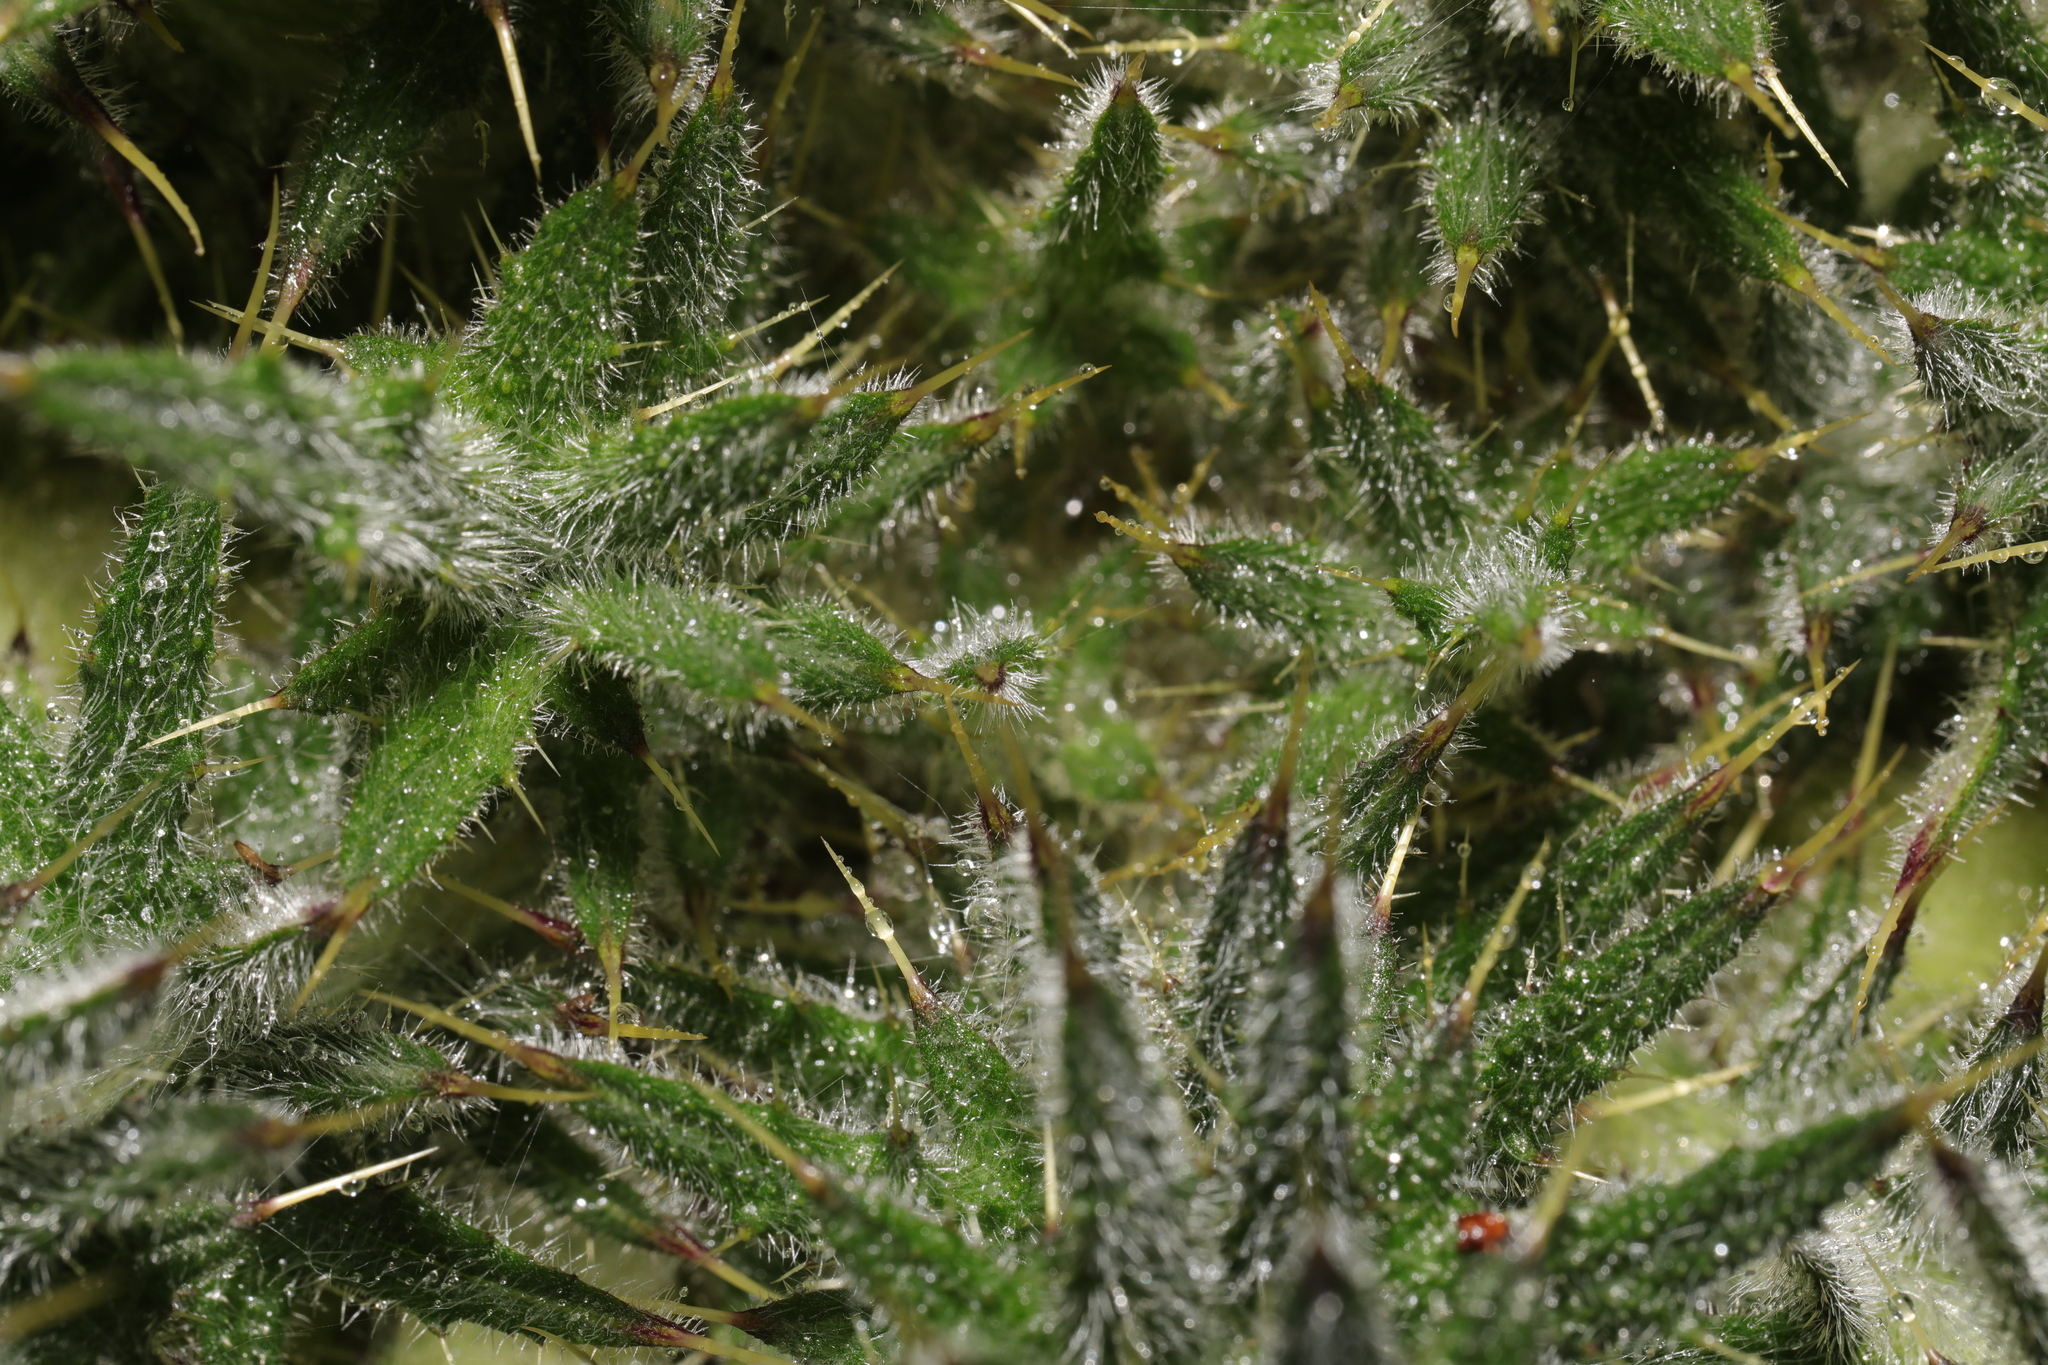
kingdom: Plantae
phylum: Tracheophyta
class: Magnoliopsida
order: Asterales
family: Asteraceae
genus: Cirsium
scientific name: Cirsium vulgare
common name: Bull thistle
